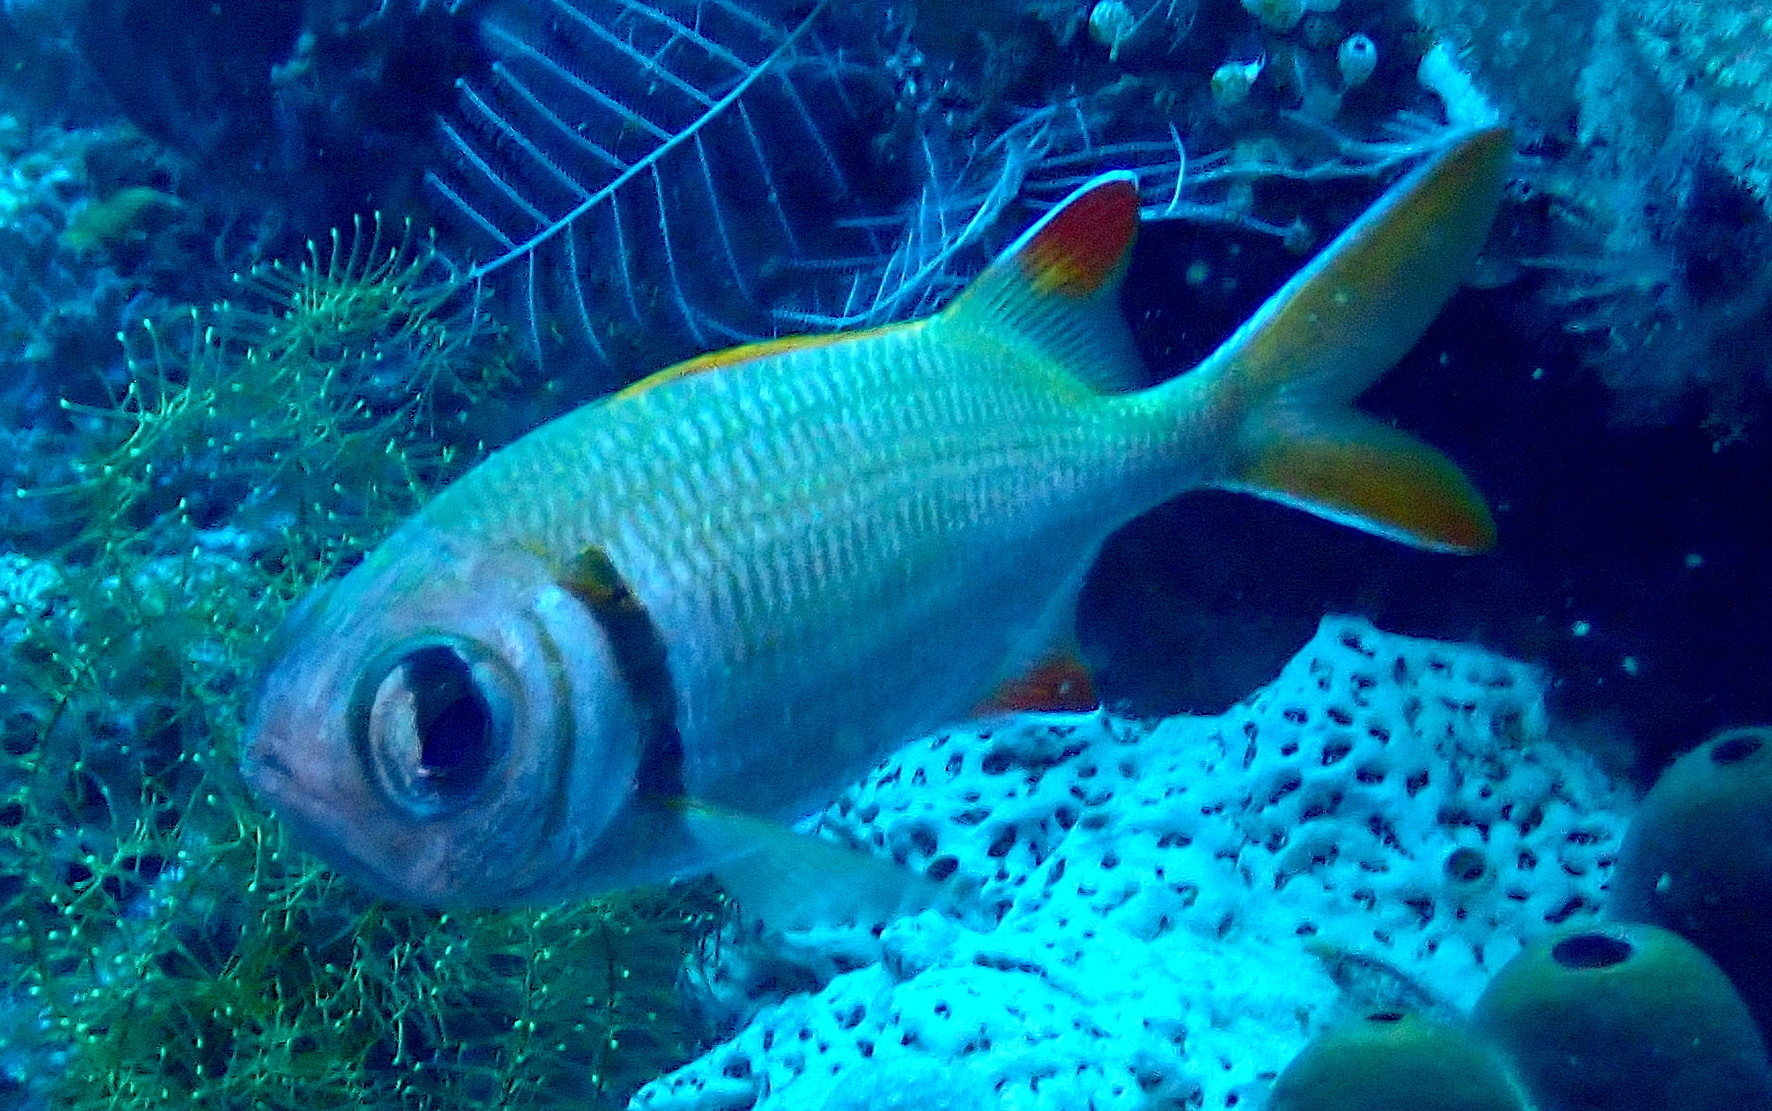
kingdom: Animalia
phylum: Chordata
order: Beryciformes
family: Holocentridae
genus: Myripristis
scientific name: Myripristis kuntee
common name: Epaulette soldierfish
